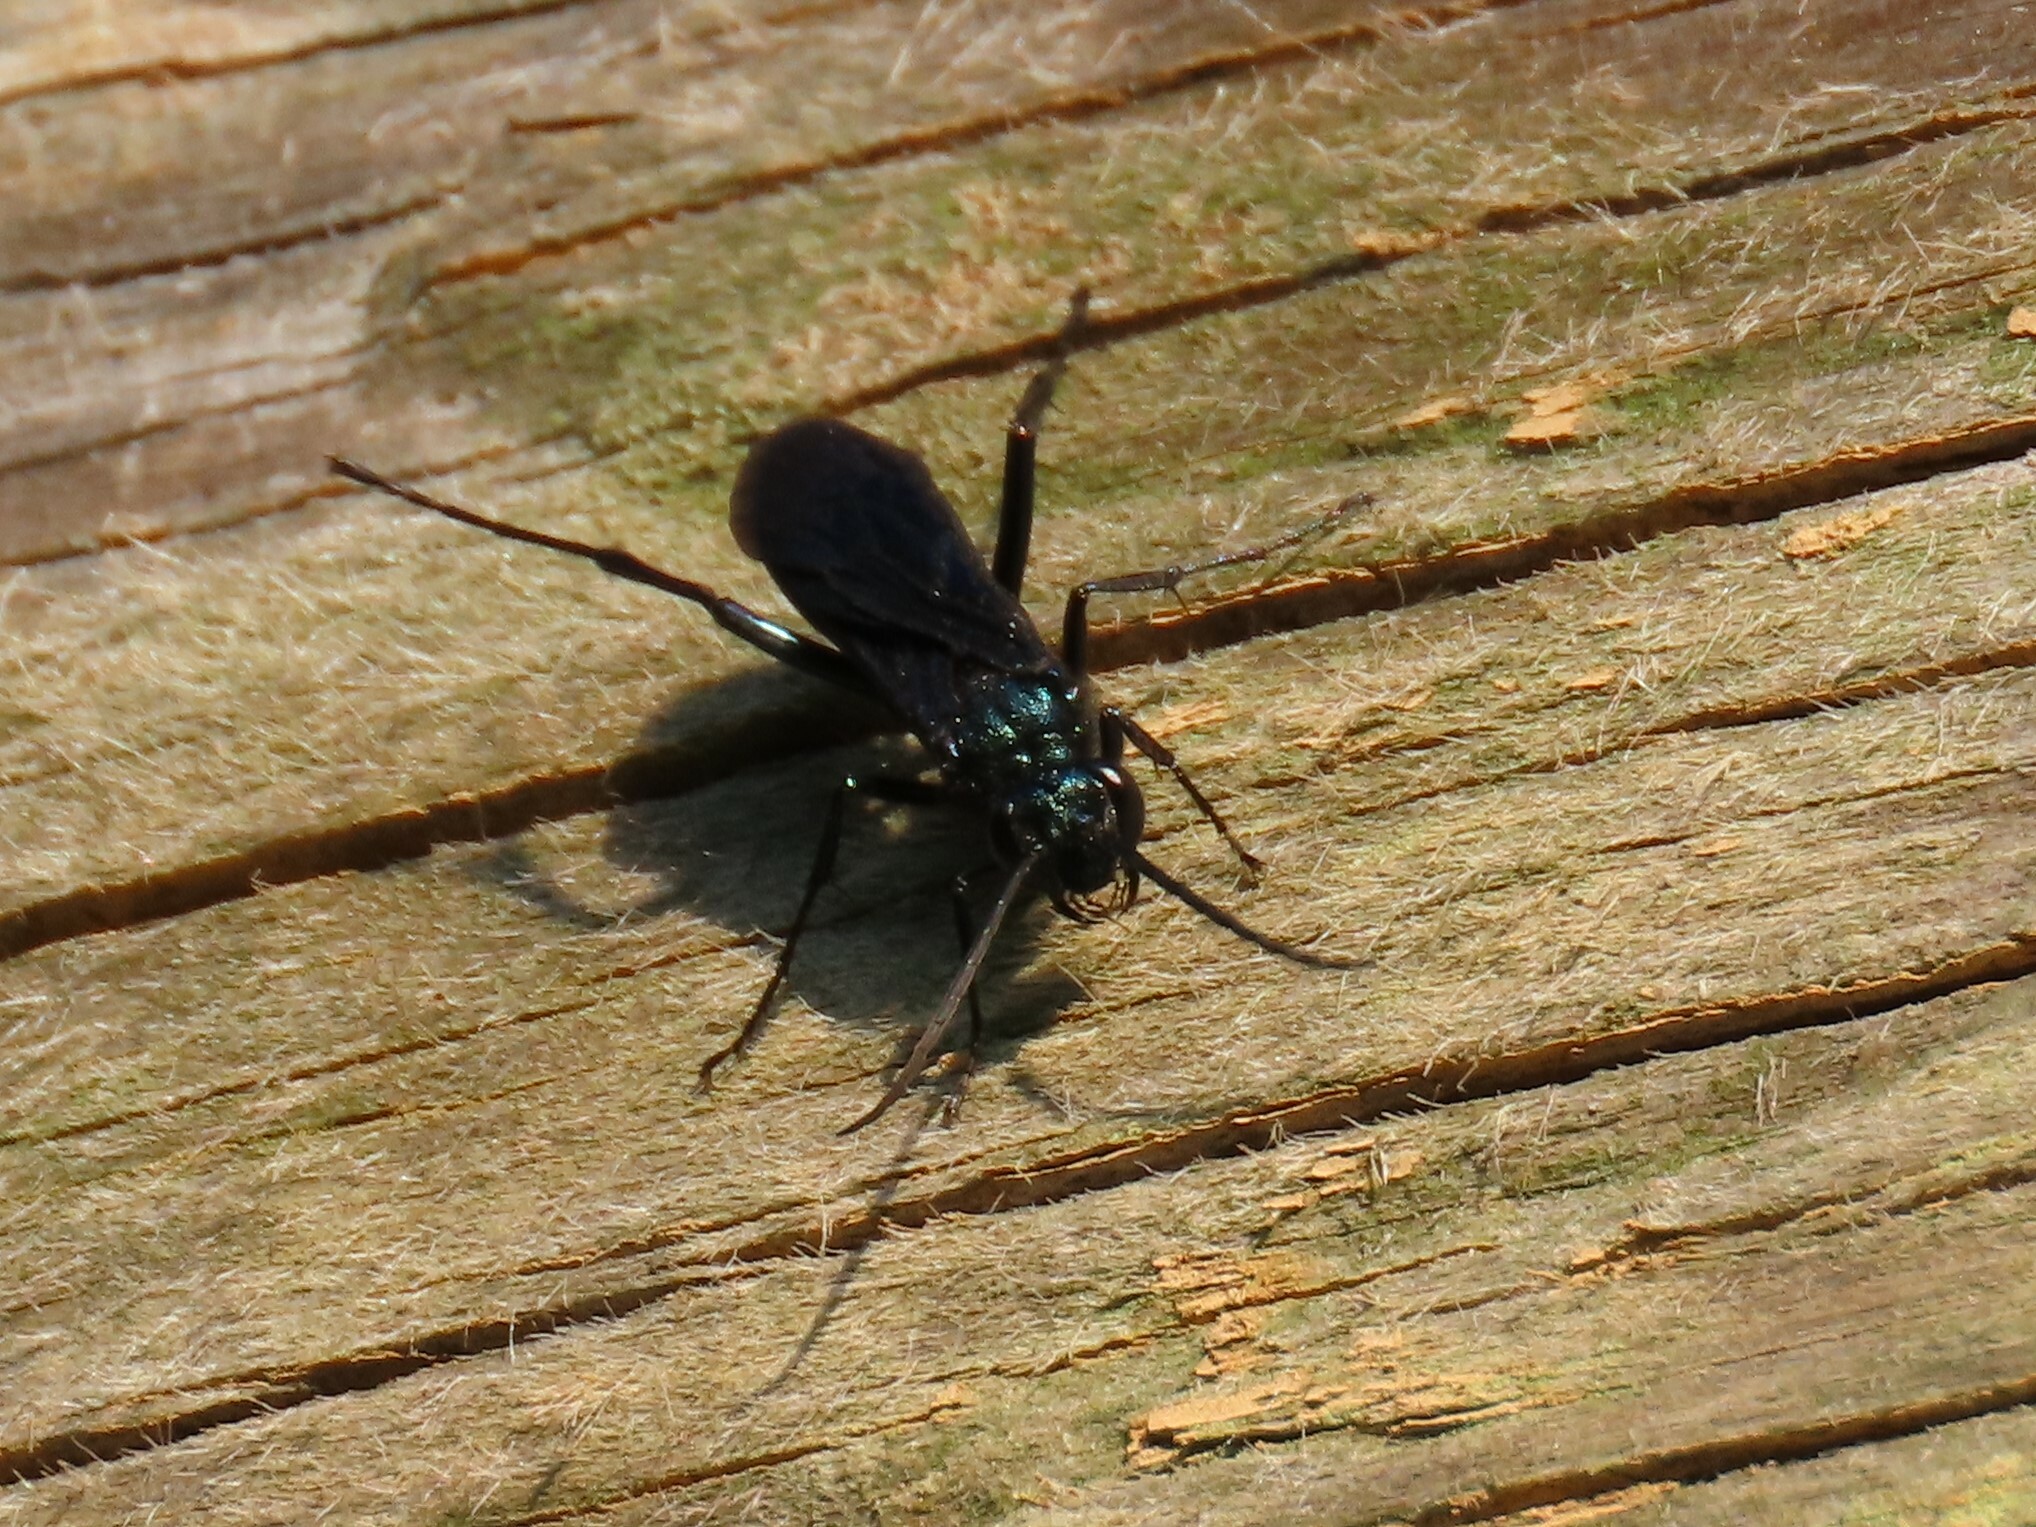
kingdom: Animalia
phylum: Arthropoda
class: Insecta
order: Hymenoptera
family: Sphecidae
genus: Chalybion
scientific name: Chalybion californicum
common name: Mud dauber
